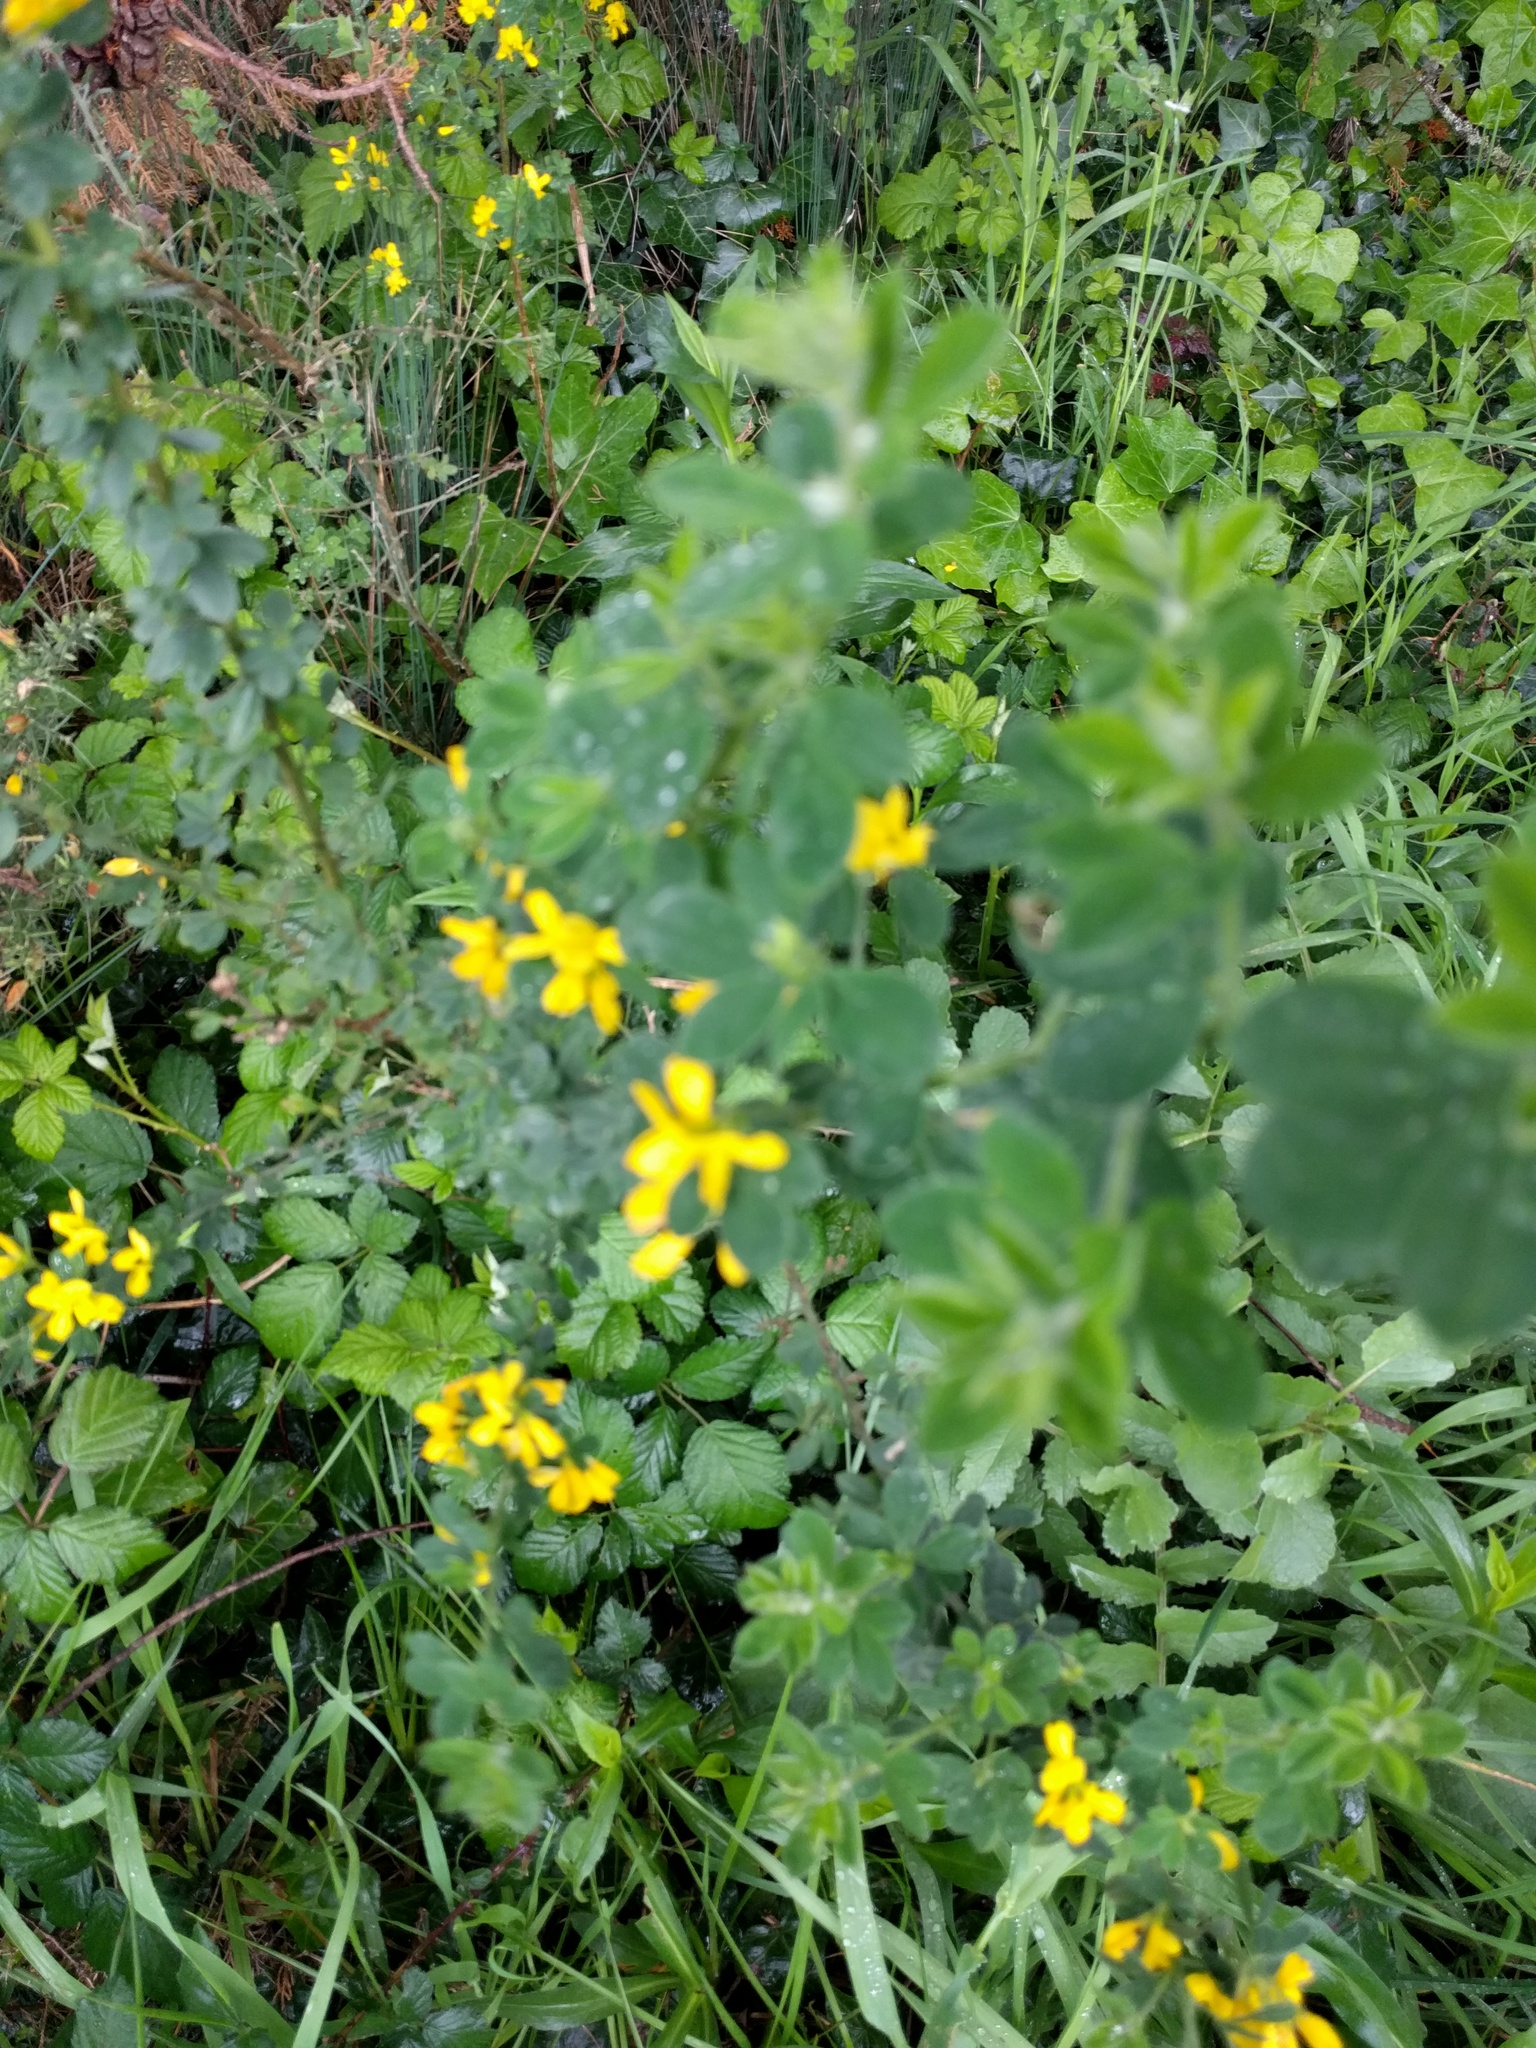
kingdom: Plantae
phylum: Tracheophyta
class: Magnoliopsida
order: Fabales
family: Fabaceae
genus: Genista
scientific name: Genista monspessulana
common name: Montpellier broom
